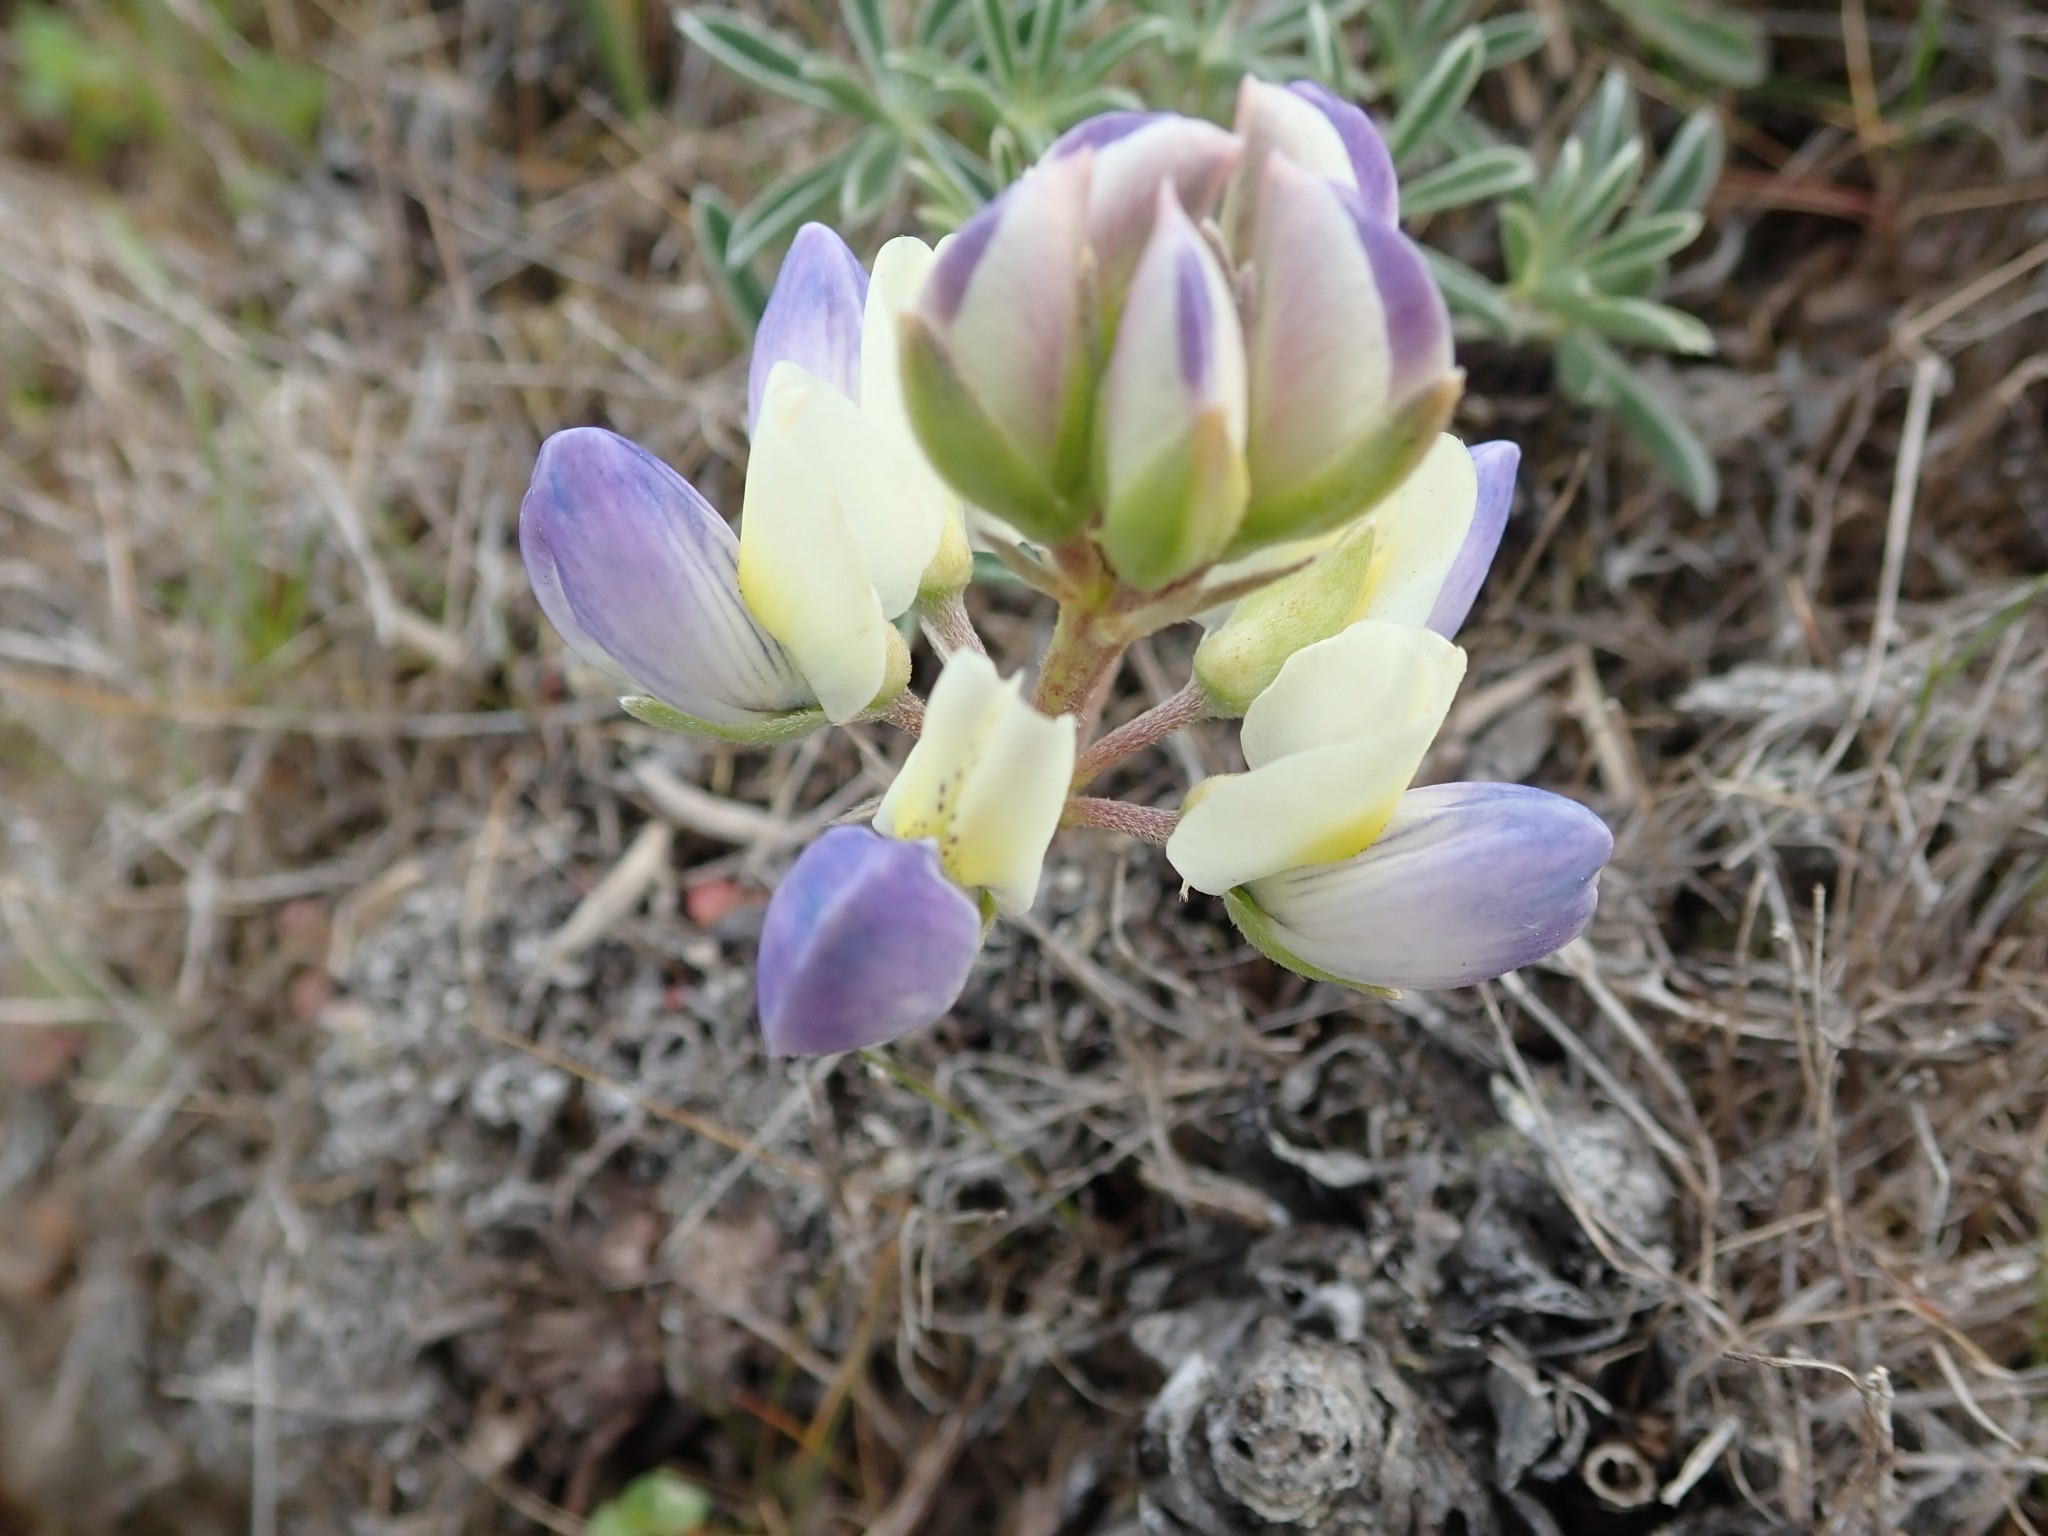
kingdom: Plantae
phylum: Tracheophyta
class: Magnoliopsida
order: Fabales
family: Fabaceae
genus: Lupinus
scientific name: Lupinus variicolor
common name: Lindley's varied lupine
